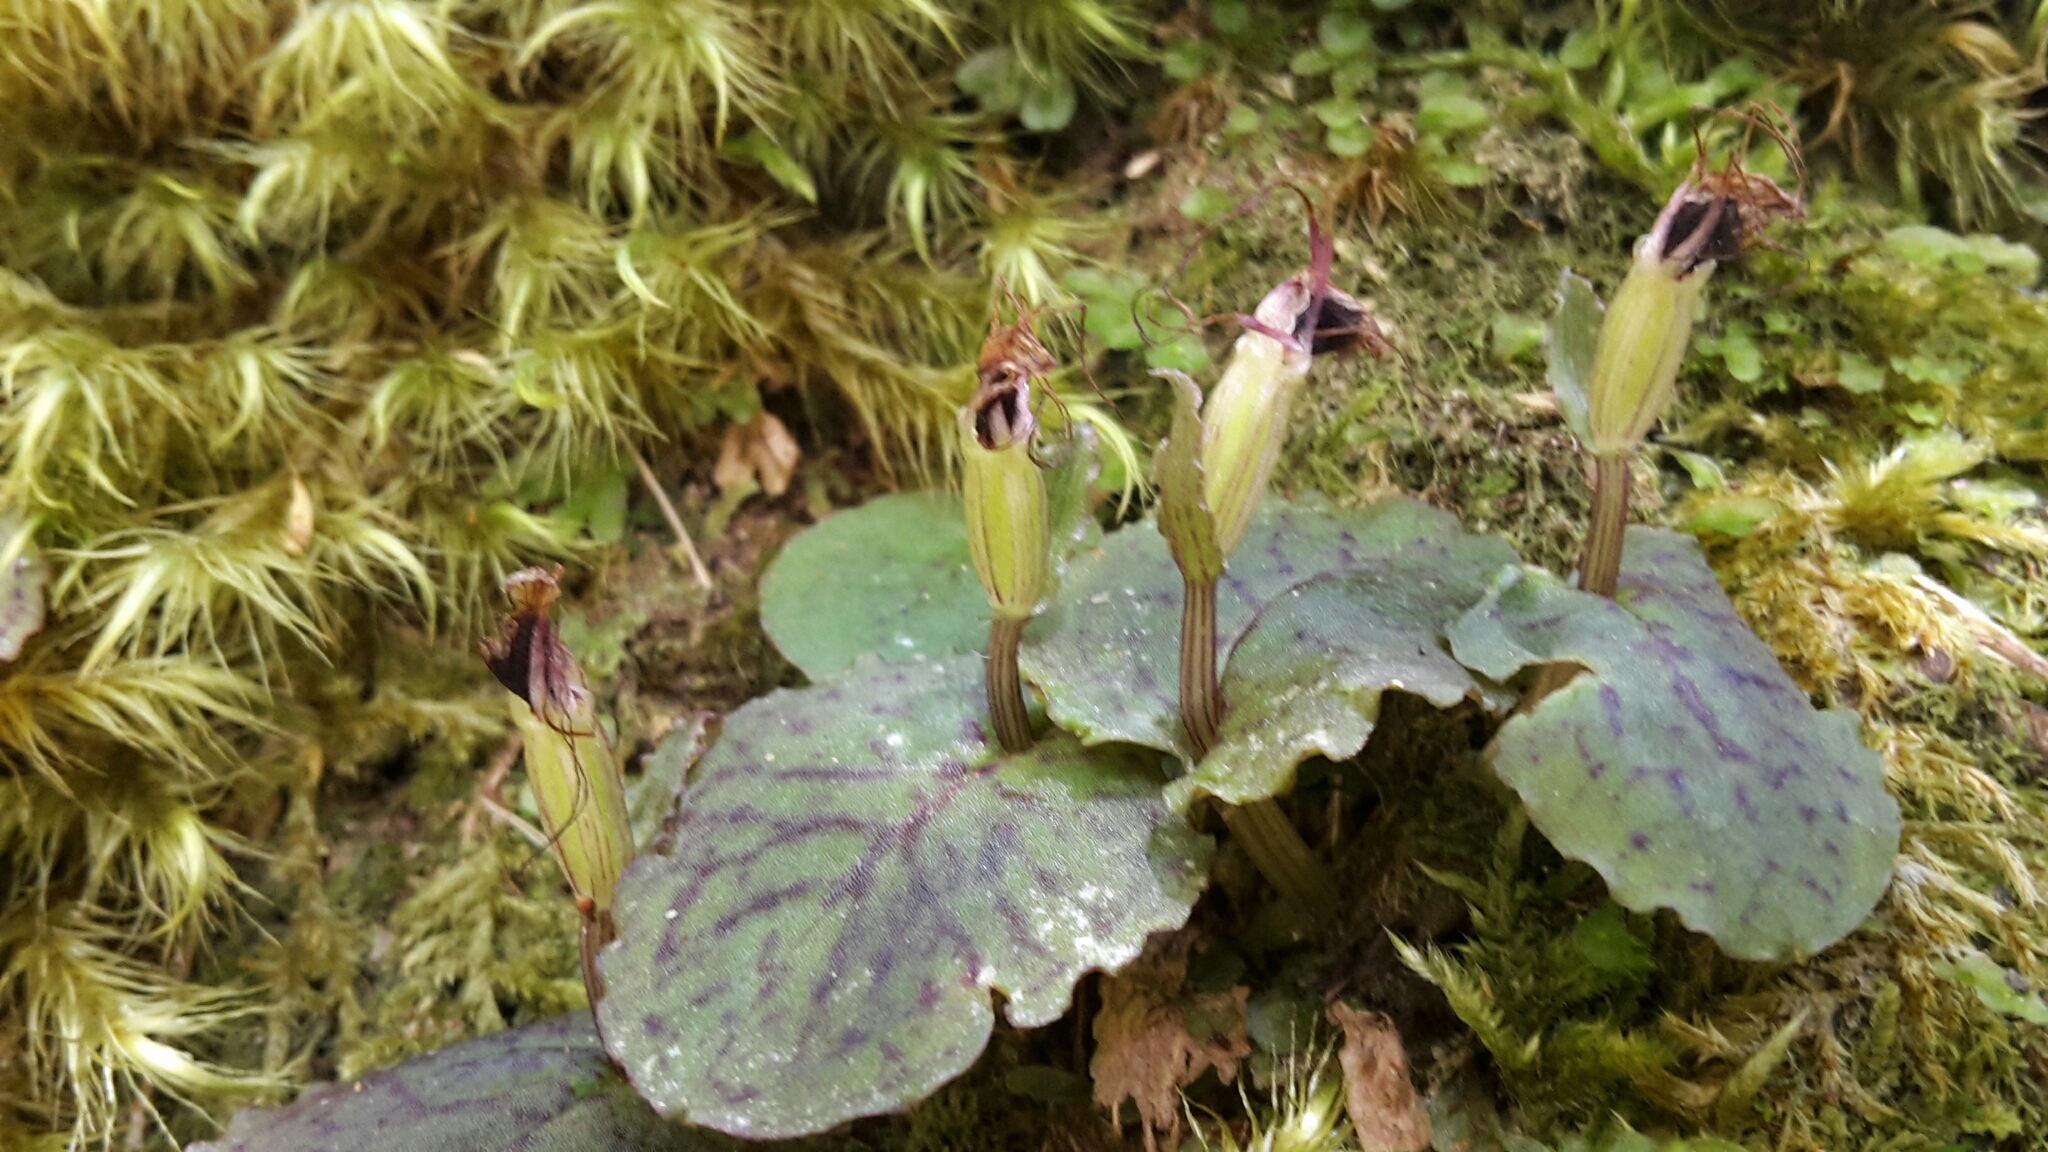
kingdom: Plantae
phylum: Tracheophyta
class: Liliopsida
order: Asparagales
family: Orchidaceae
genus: Corybas
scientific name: Corybas oblongus
